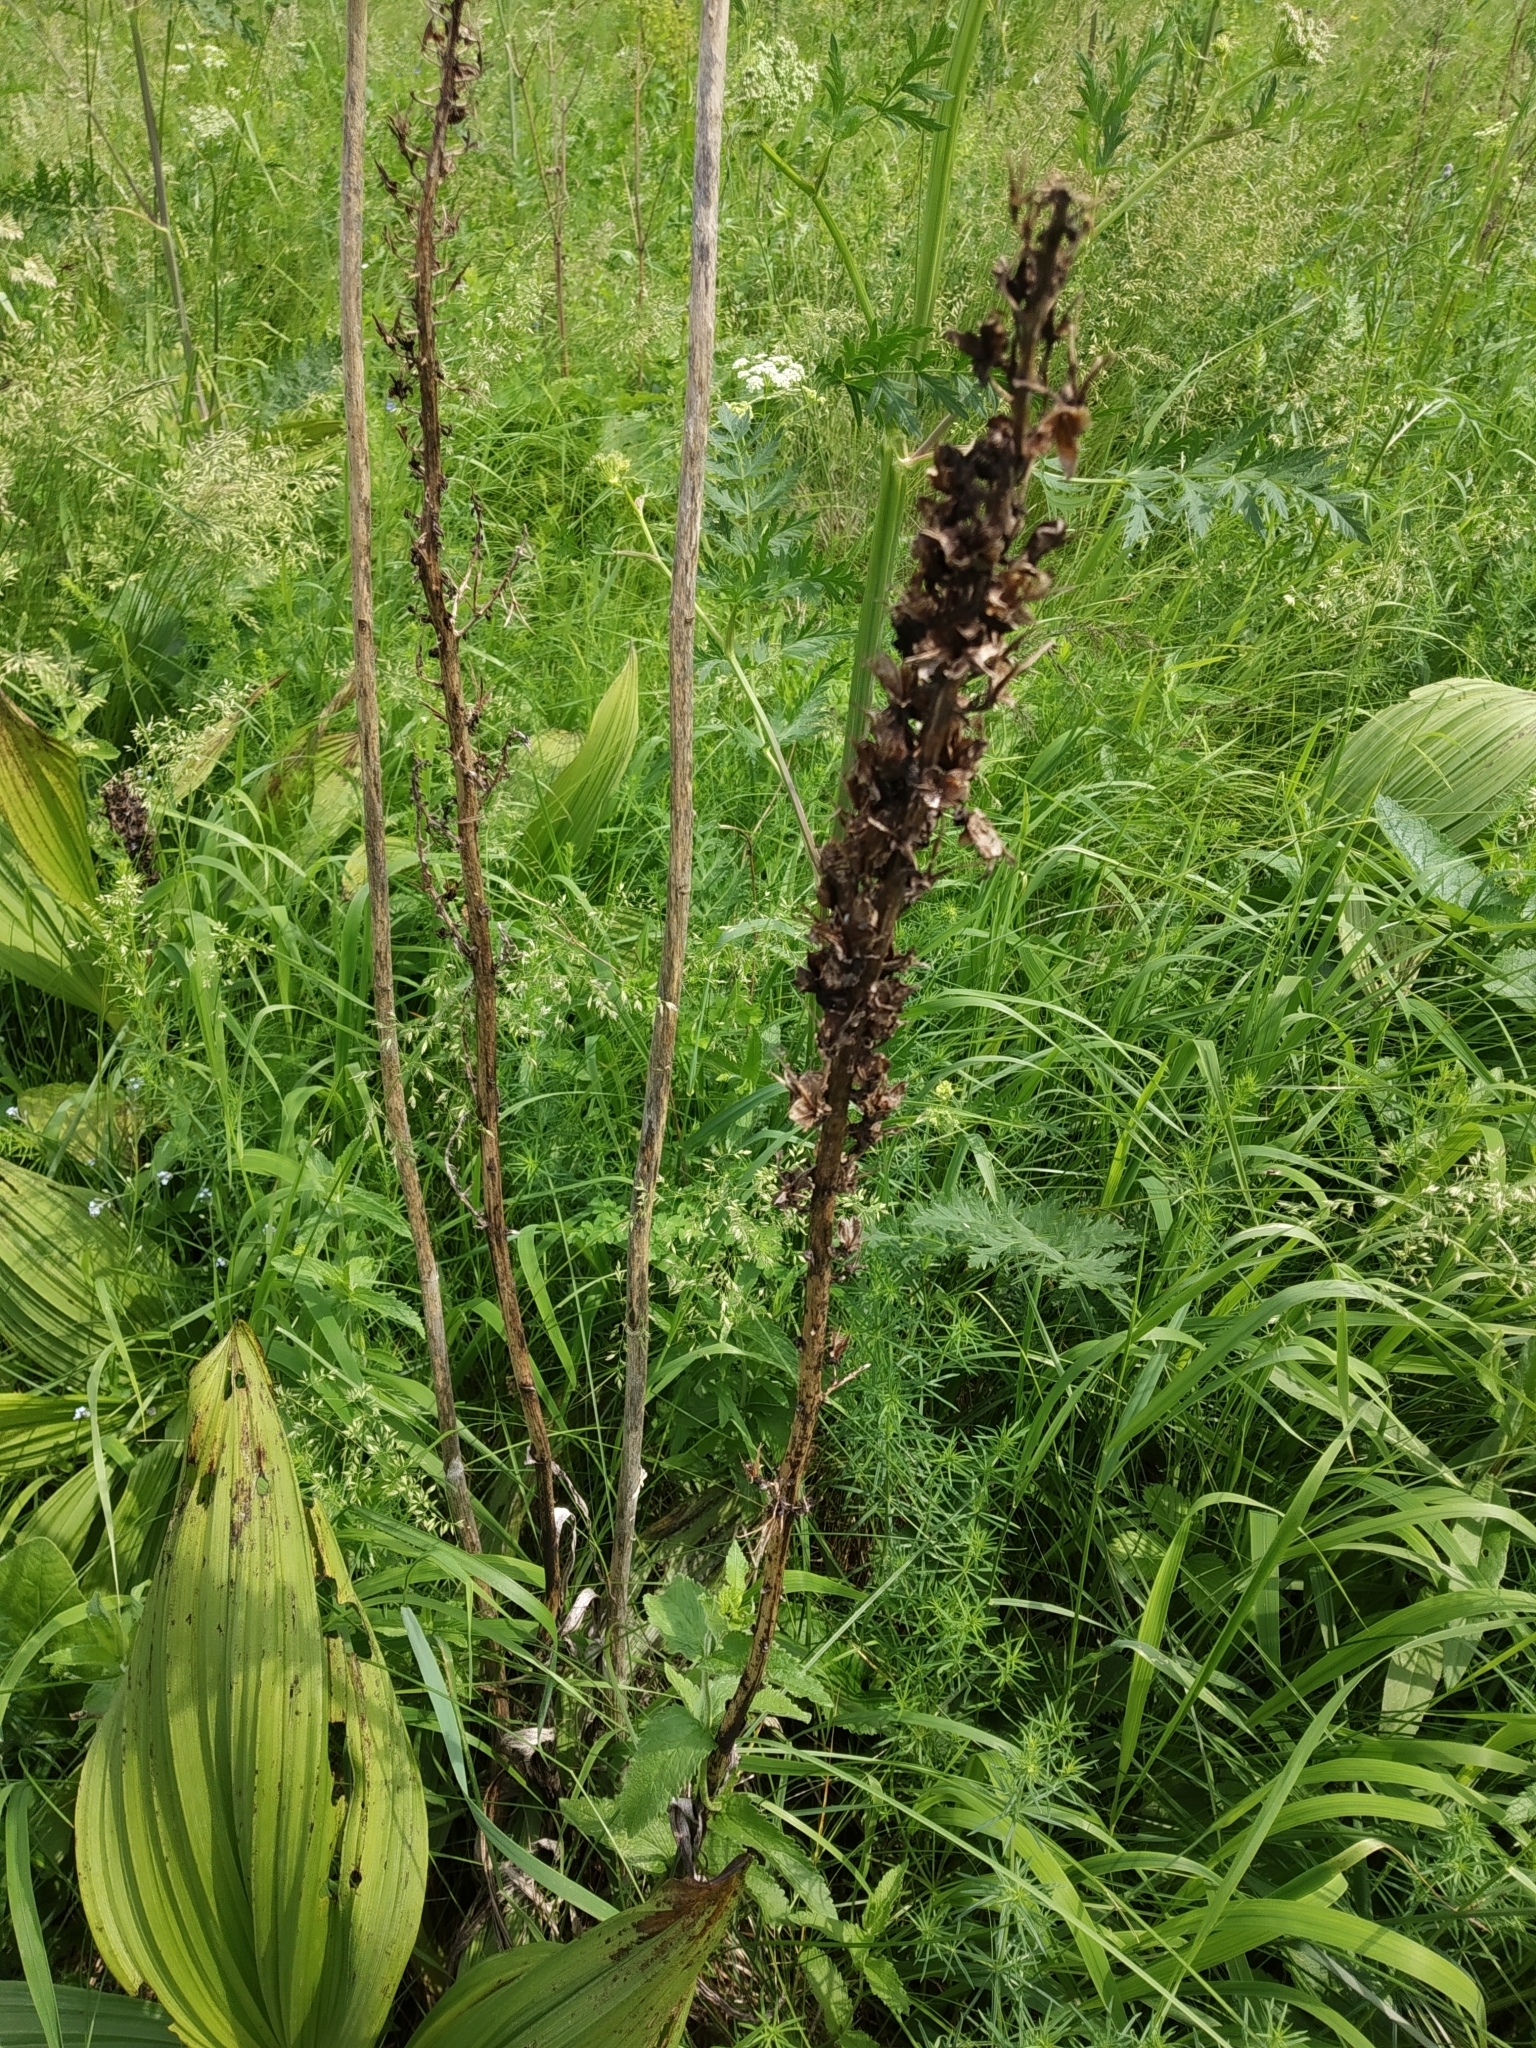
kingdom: Plantae
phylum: Tracheophyta
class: Liliopsida
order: Liliales
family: Melanthiaceae
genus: Veratrum
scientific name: Veratrum lobelianum
